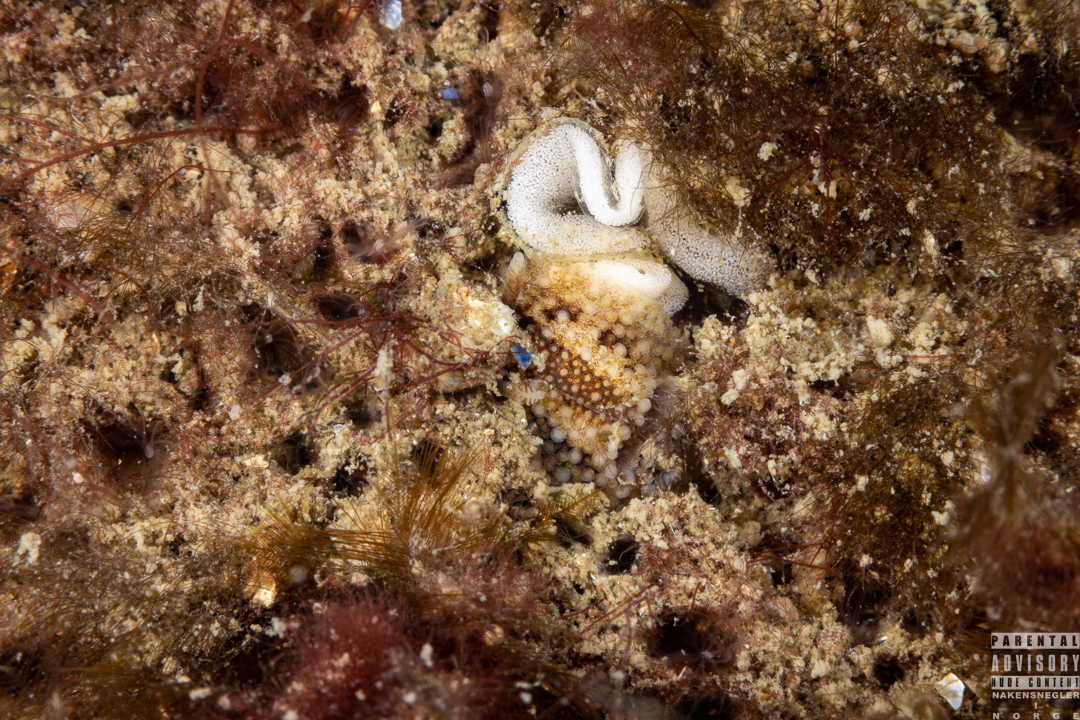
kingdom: Animalia
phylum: Mollusca
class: Gastropoda
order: Nudibranchia
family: Onchidorididae
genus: Onchidoris
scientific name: Onchidoris bilamellata
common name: Barnacle-eating onchidoris
